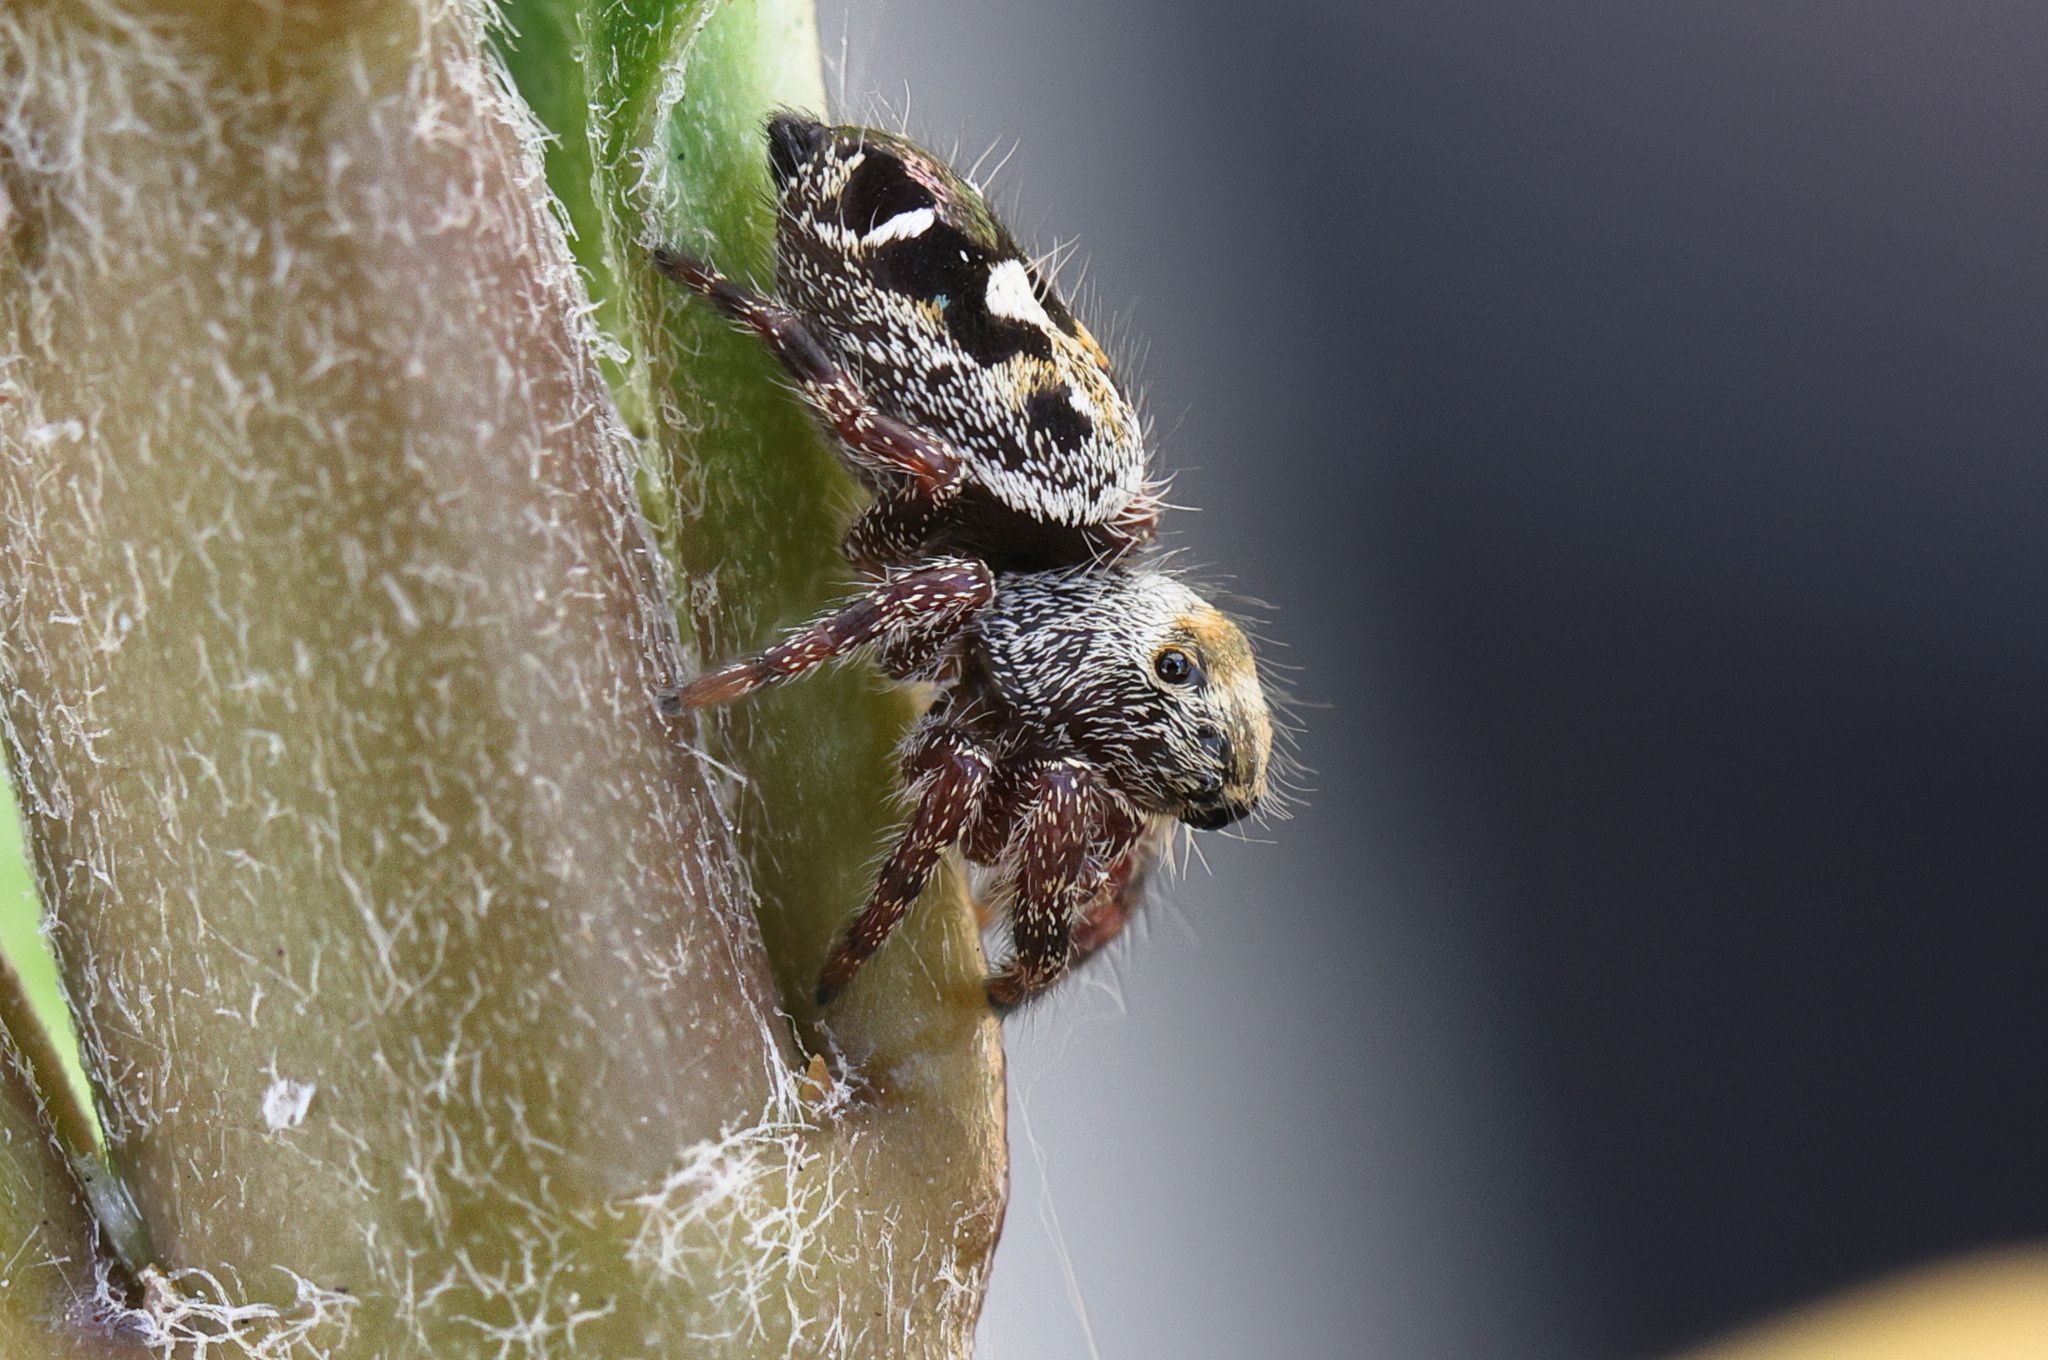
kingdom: Animalia
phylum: Arthropoda
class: Arachnida
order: Araneae
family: Salticidae
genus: Phidippus
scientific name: Phidippus audax
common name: Bold jumper
